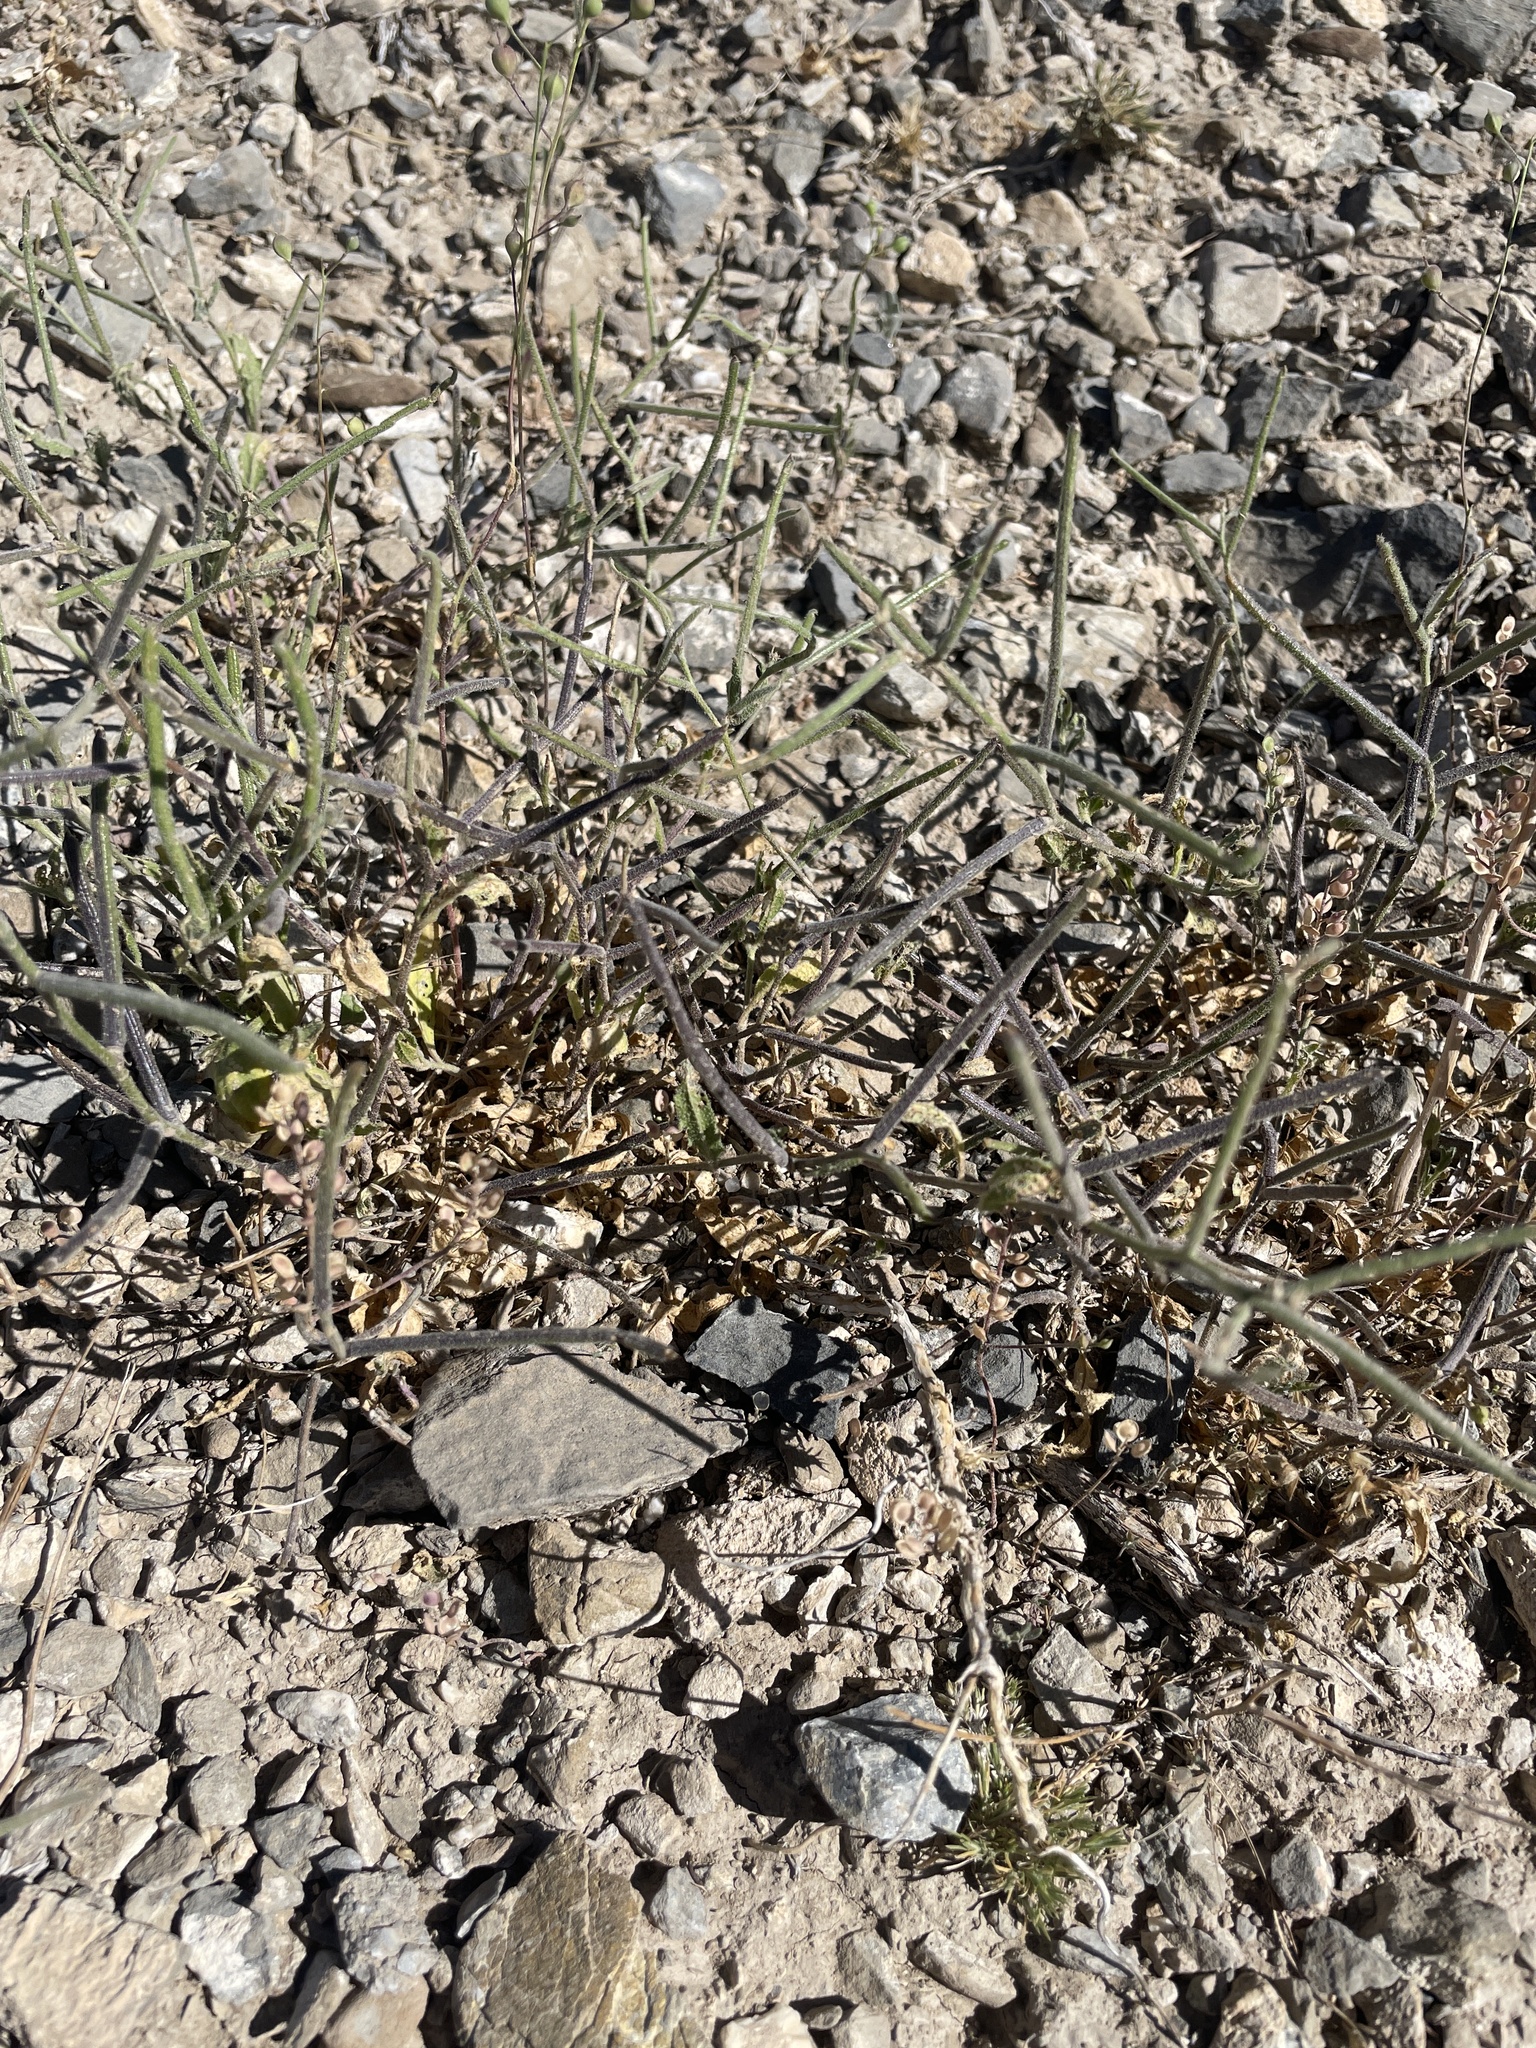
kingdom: Plantae
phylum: Tracheophyta
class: Magnoliopsida
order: Brassicales
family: Brassicaceae
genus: Strigosella
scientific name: Strigosella africana
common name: African mustard
